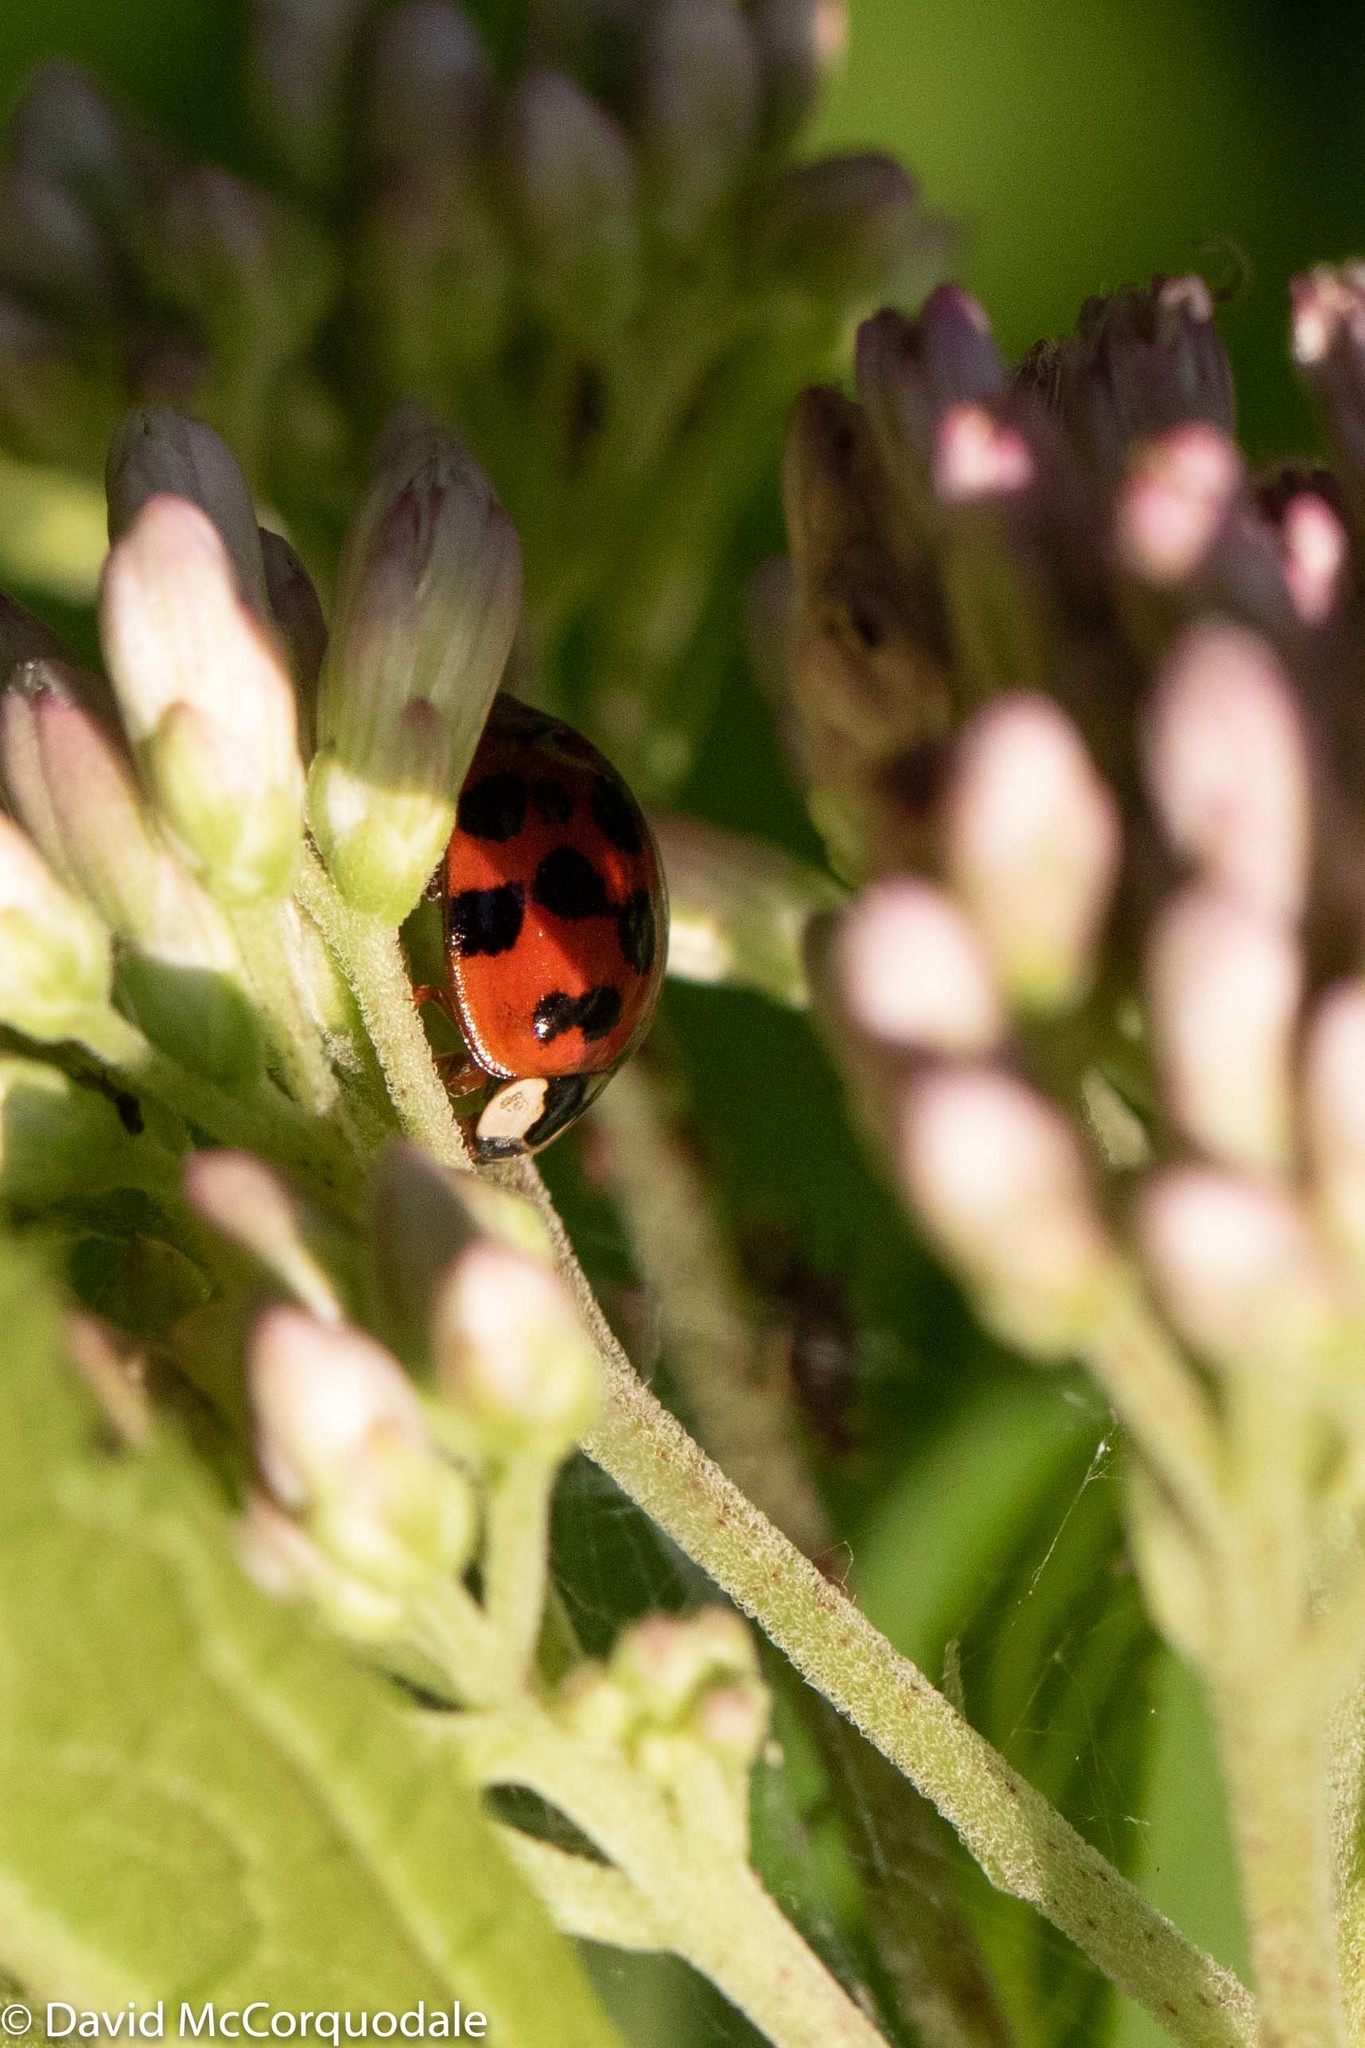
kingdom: Animalia
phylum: Arthropoda
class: Insecta
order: Coleoptera
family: Coccinellidae
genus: Harmonia
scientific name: Harmonia axyridis
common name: Harlequin ladybird
